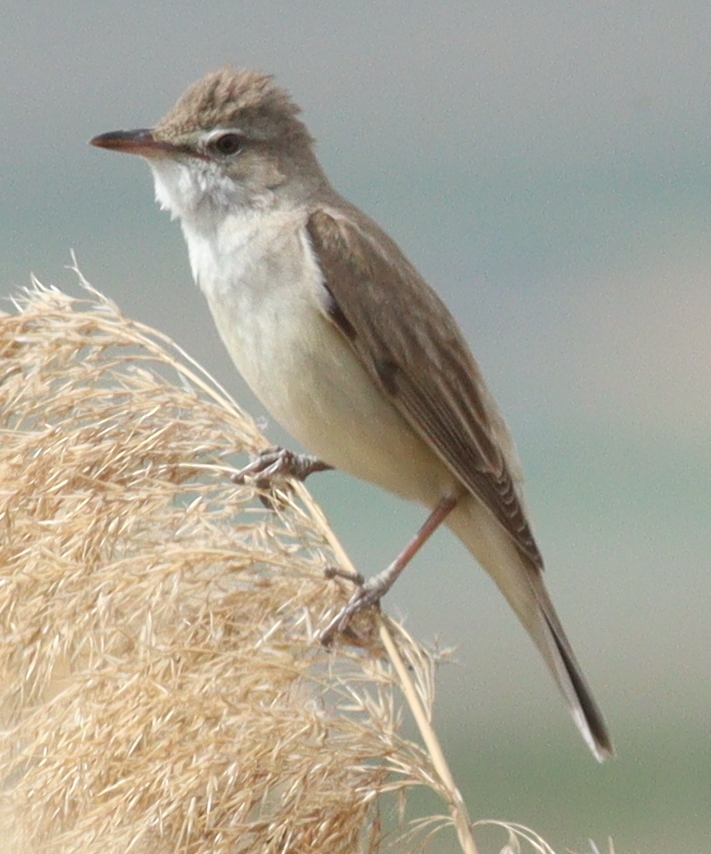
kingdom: Animalia
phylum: Chordata
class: Aves
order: Passeriformes
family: Acrocephalidae
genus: Acrocephalus
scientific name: Acrocephalus arundinaceus
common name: Great reed warbler
